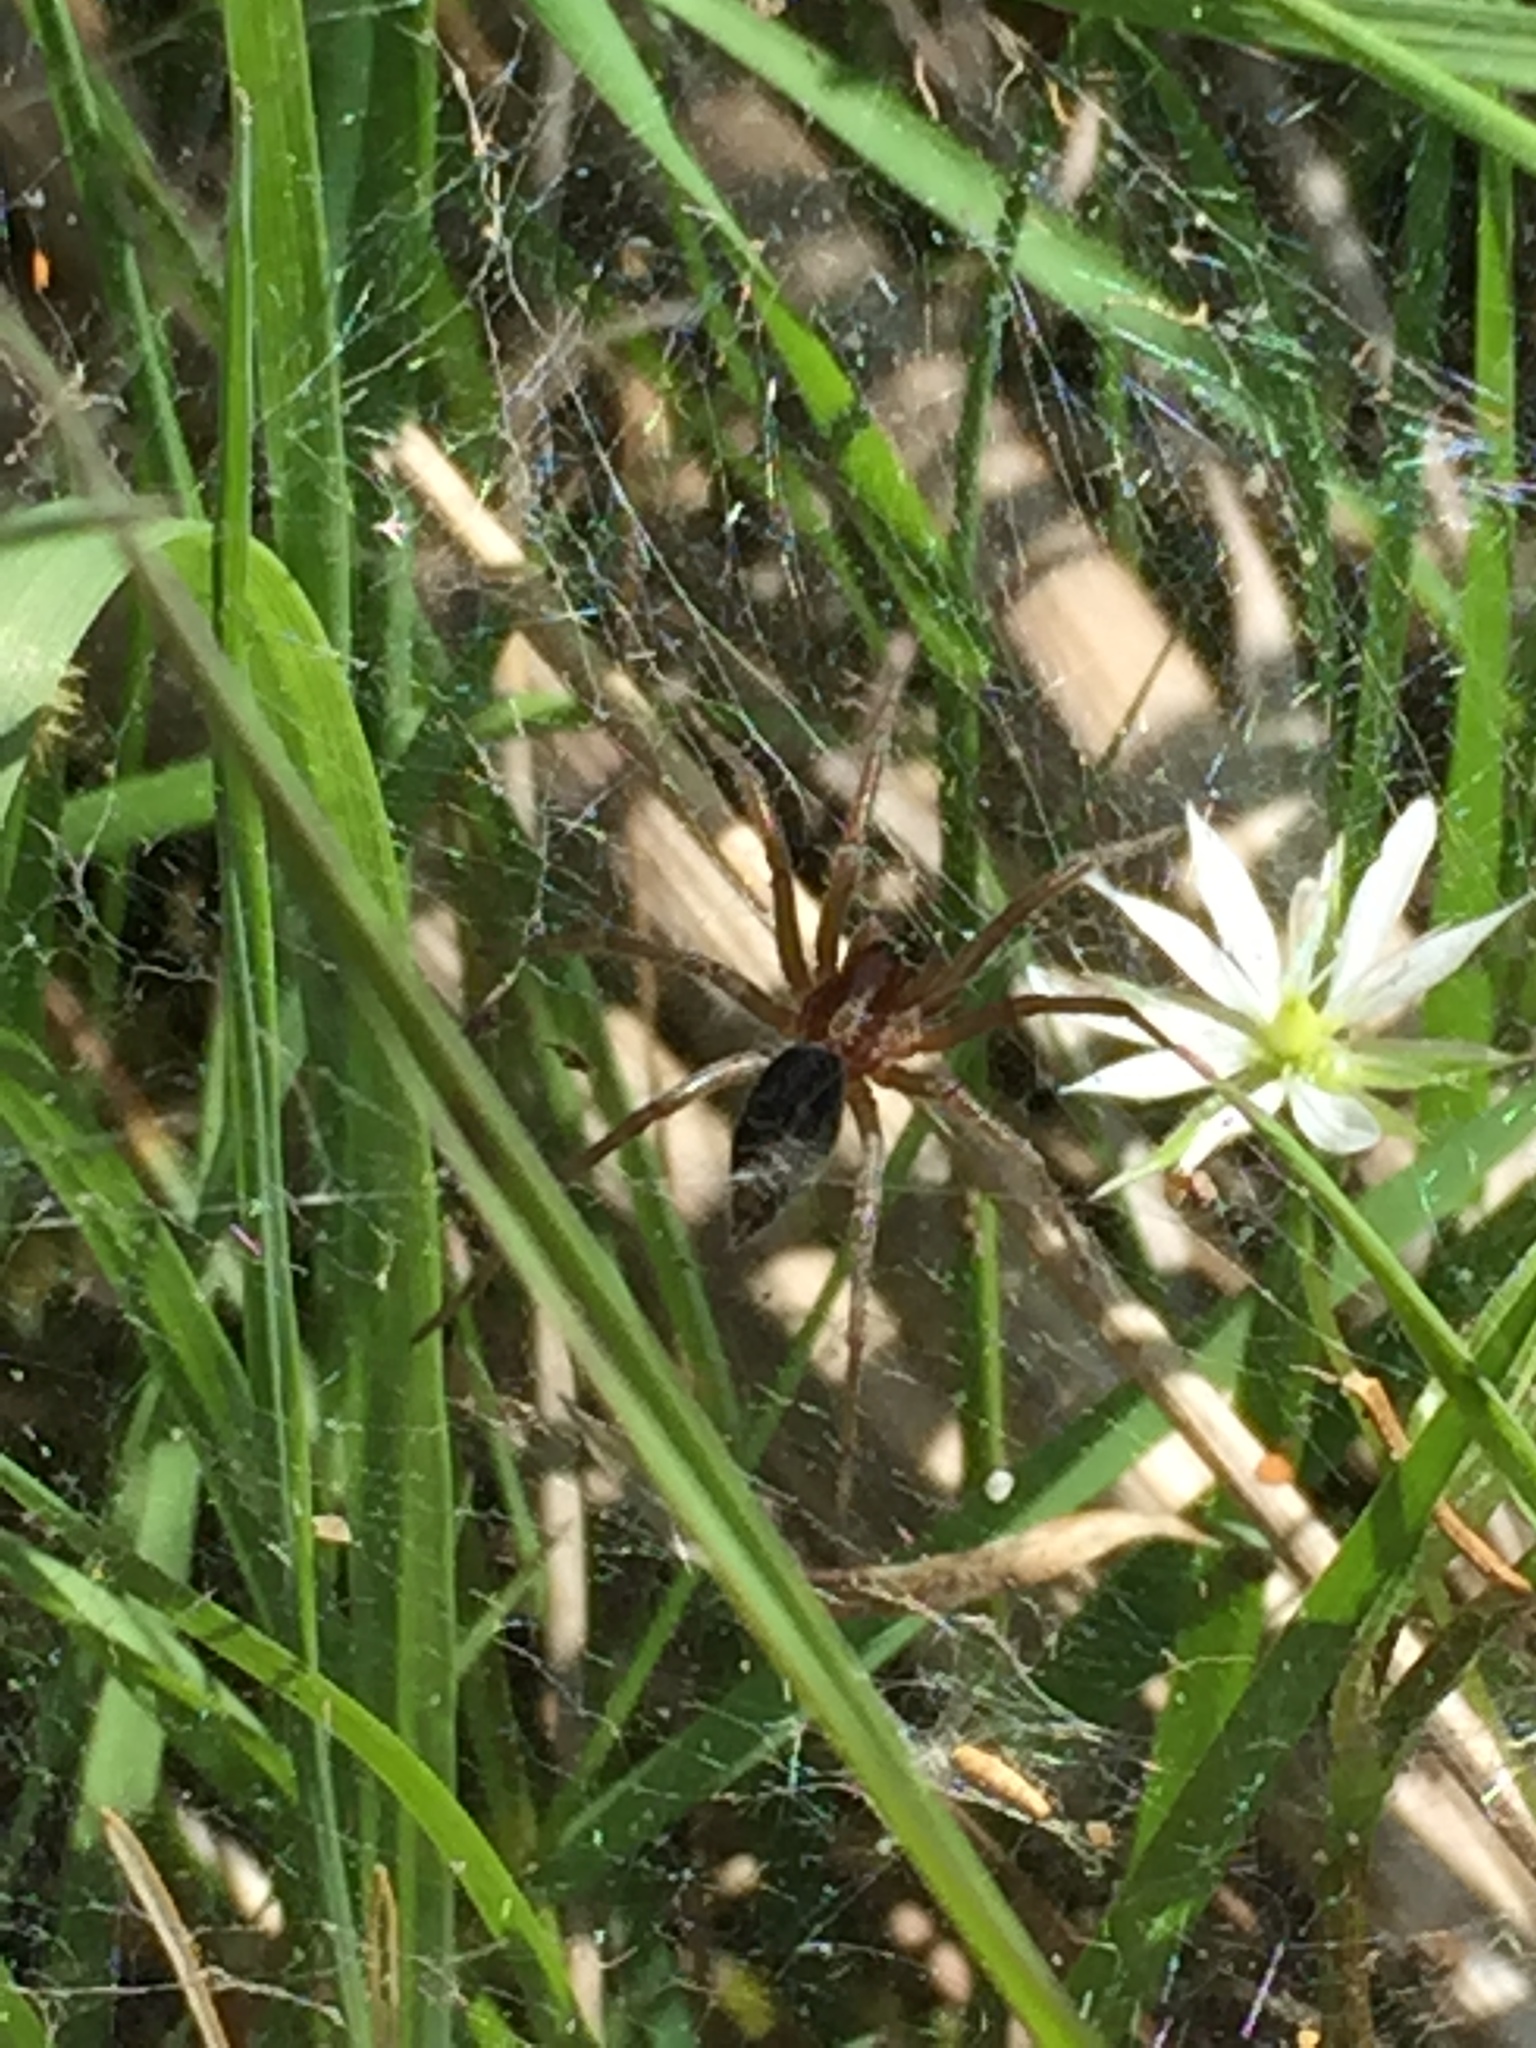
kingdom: Animalia
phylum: Arthropoda
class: Arachnida
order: Araneae
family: Agelenidae
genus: Agelena
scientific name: Agelena labyrinthica
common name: Labyrinth spider
